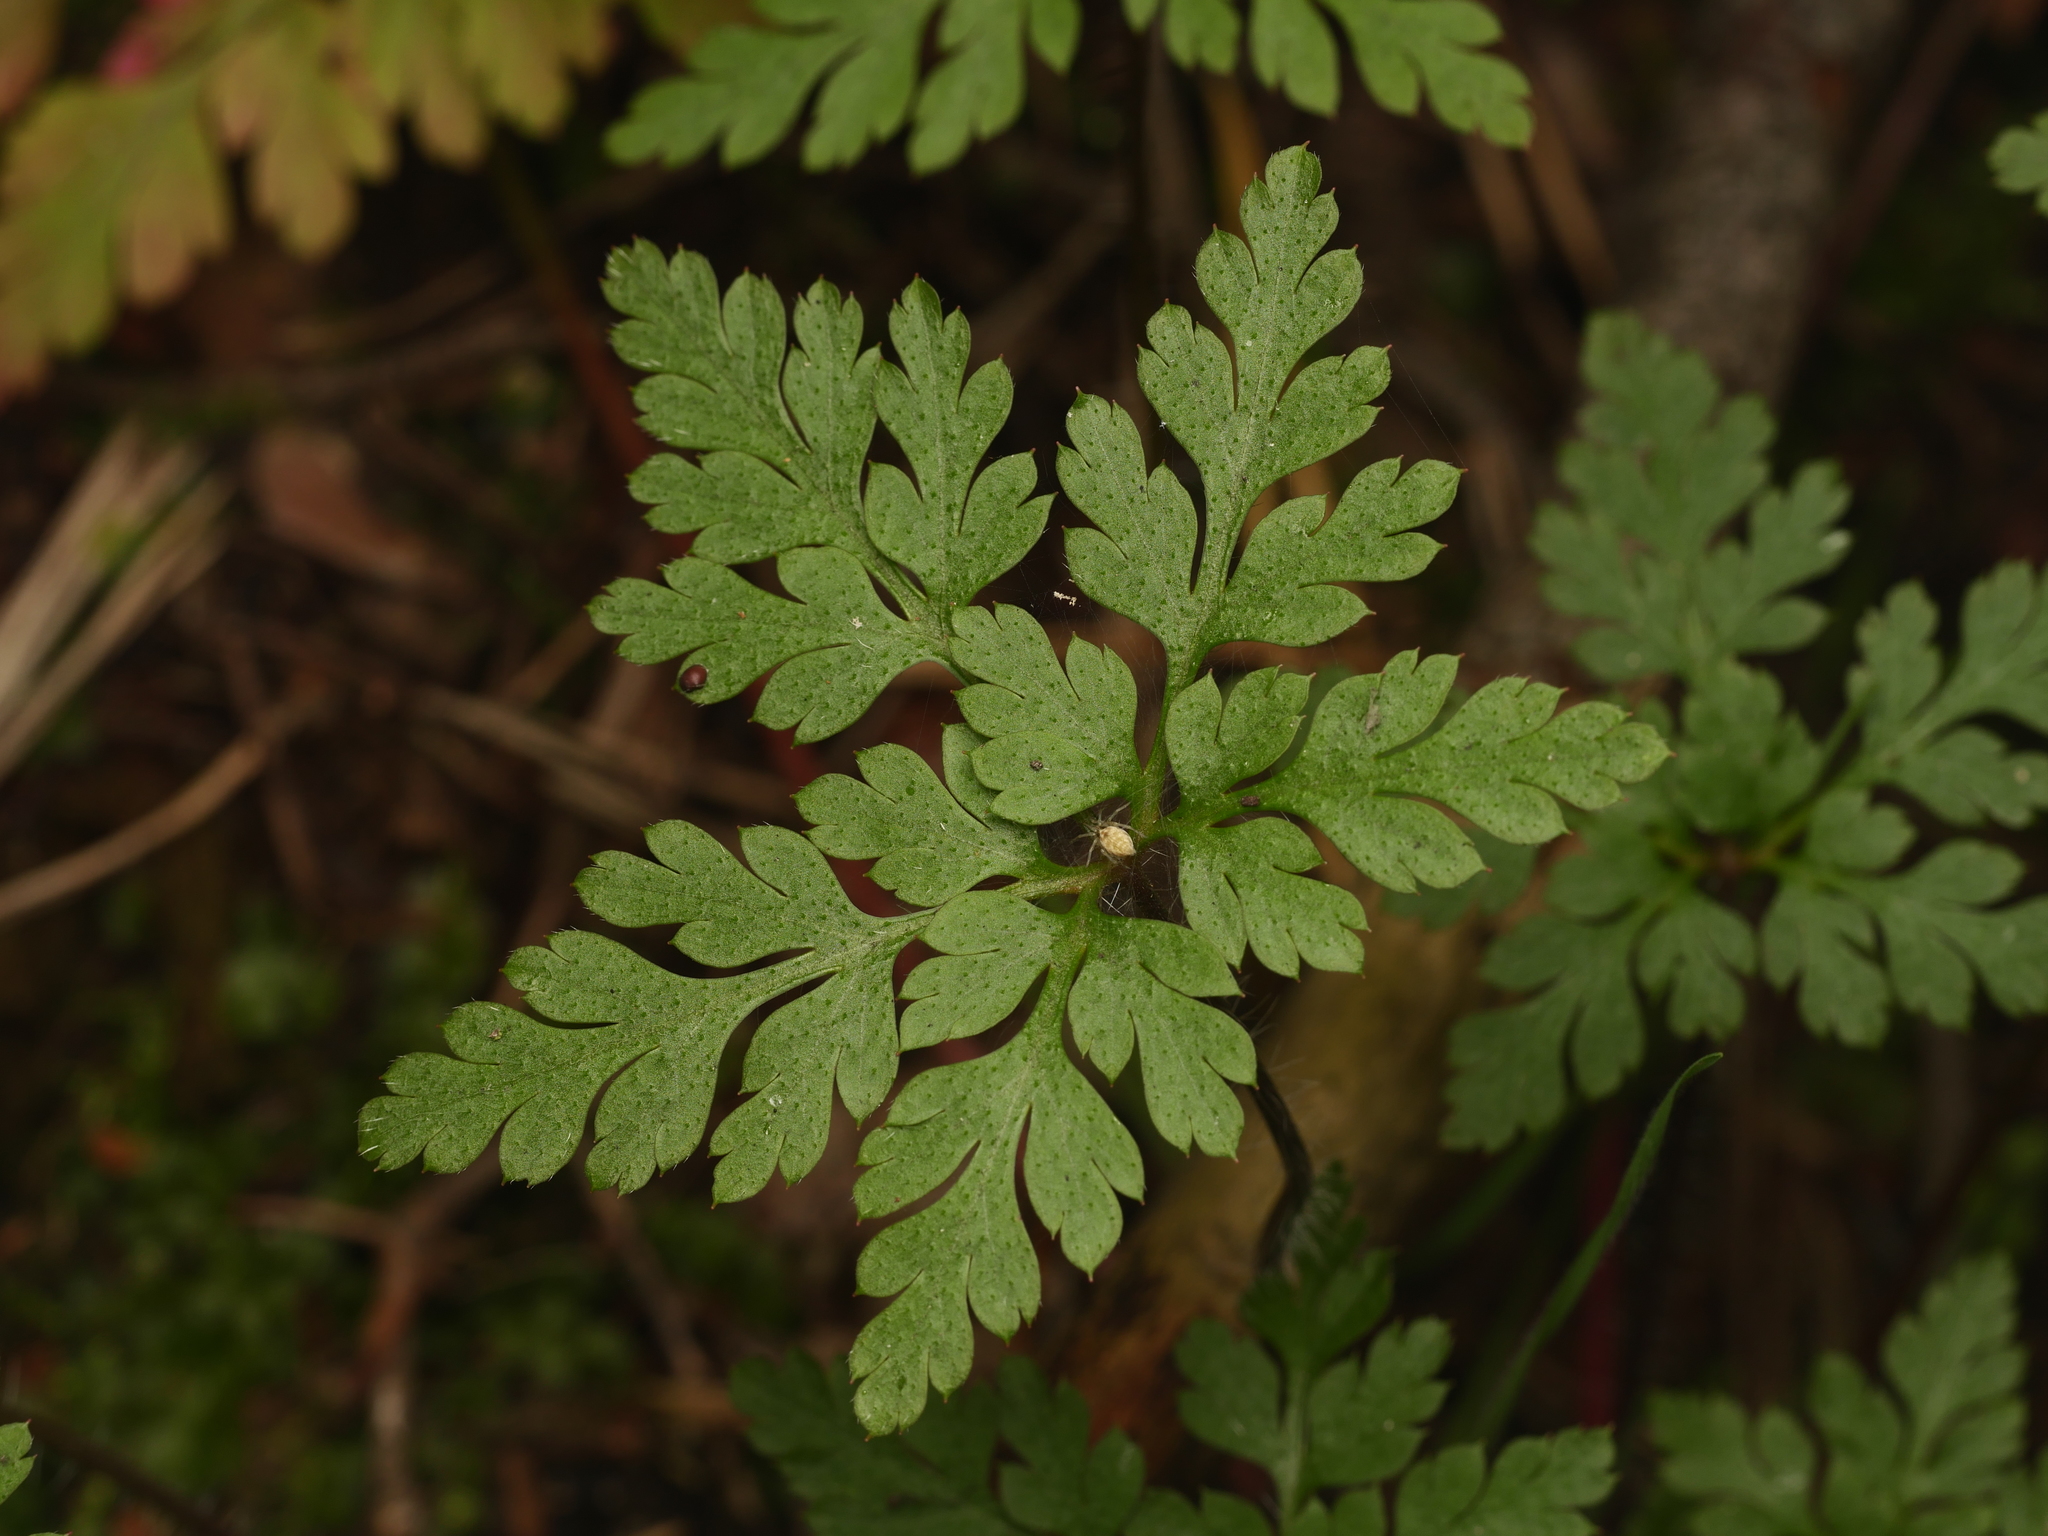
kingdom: Plantae
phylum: Tracheophyta
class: Magnoliopsida
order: Geraniales
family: Geraniaceae
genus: Geranium
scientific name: Geranium robertianum
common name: Herb-robert
